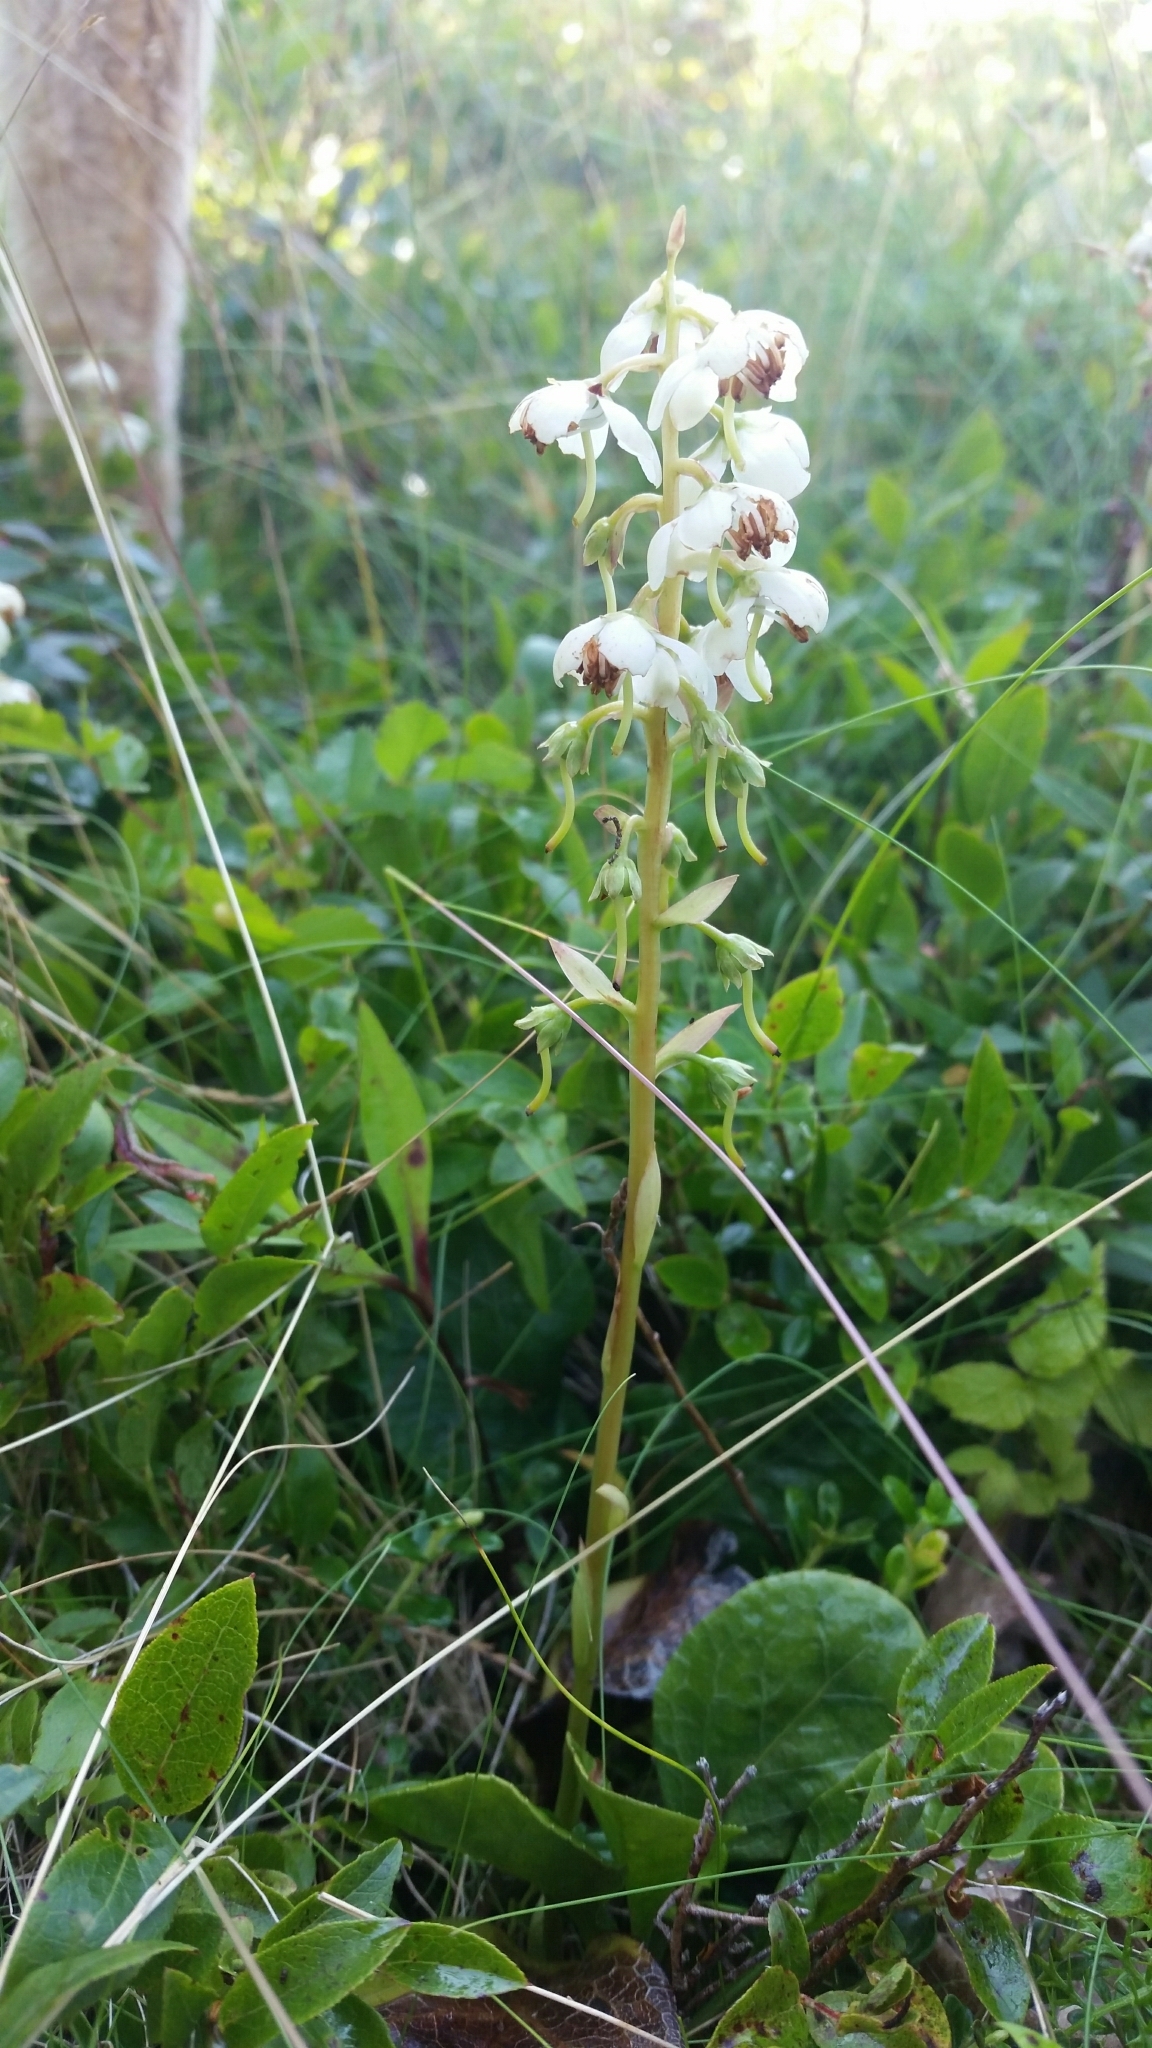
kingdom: Plantae
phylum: Tracheophyta
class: Magnoliopsida
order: Ericales
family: Ericaceae
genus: Pyrola
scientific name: Pyrola elliptica
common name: Shinleaf
